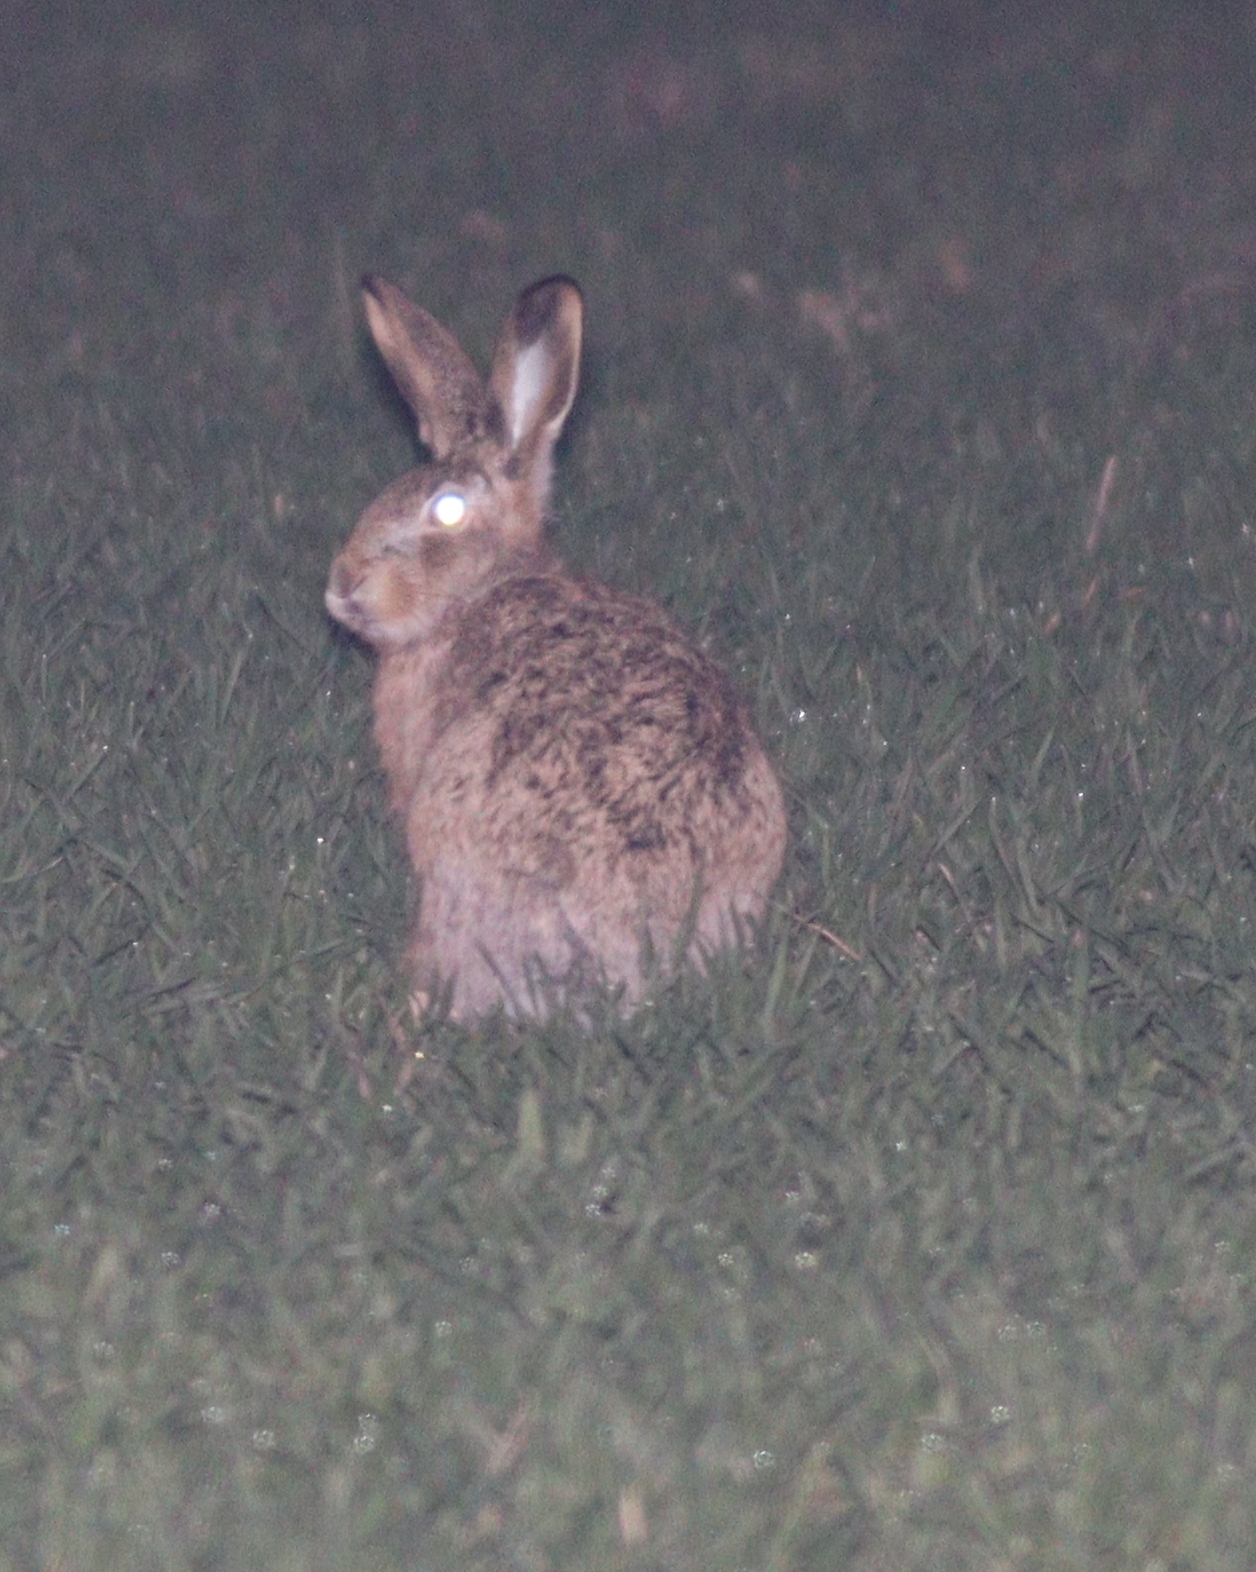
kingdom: Animalia
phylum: Chordata
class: Mammalia
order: Lagomorpha
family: Leporidae
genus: Lepus
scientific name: Lepus europaeus
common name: European hare
